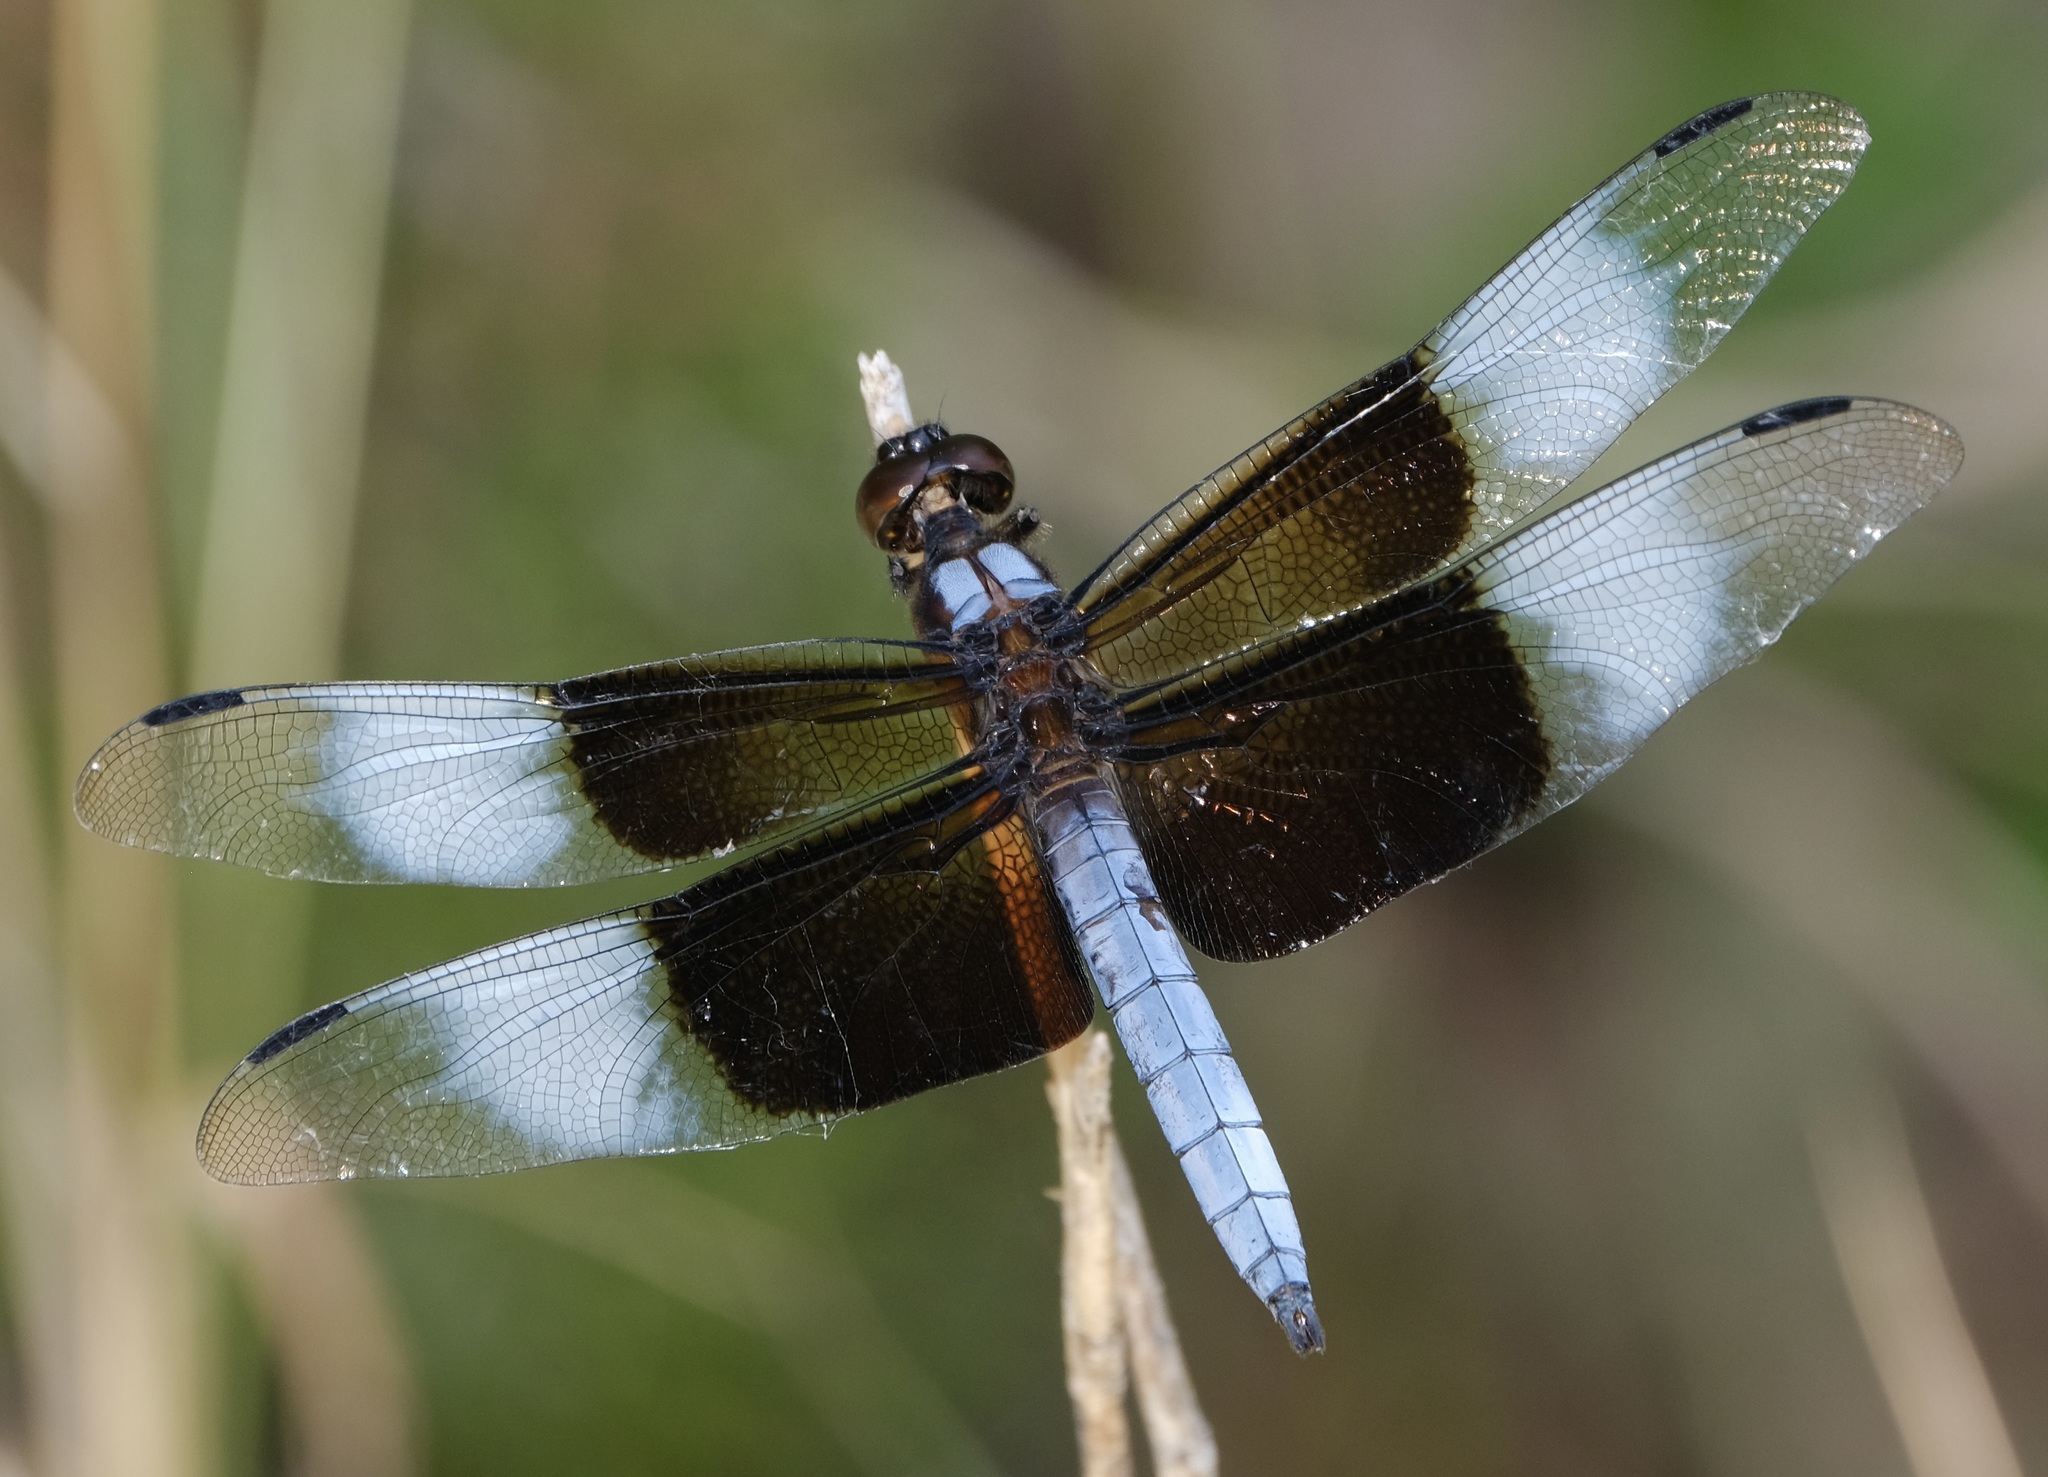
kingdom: Animalia
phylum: Arthropoda
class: Insecta
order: Odonata
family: Libellulidae
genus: Libellula
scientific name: Libellula luctuosa
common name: Widow skimmer
